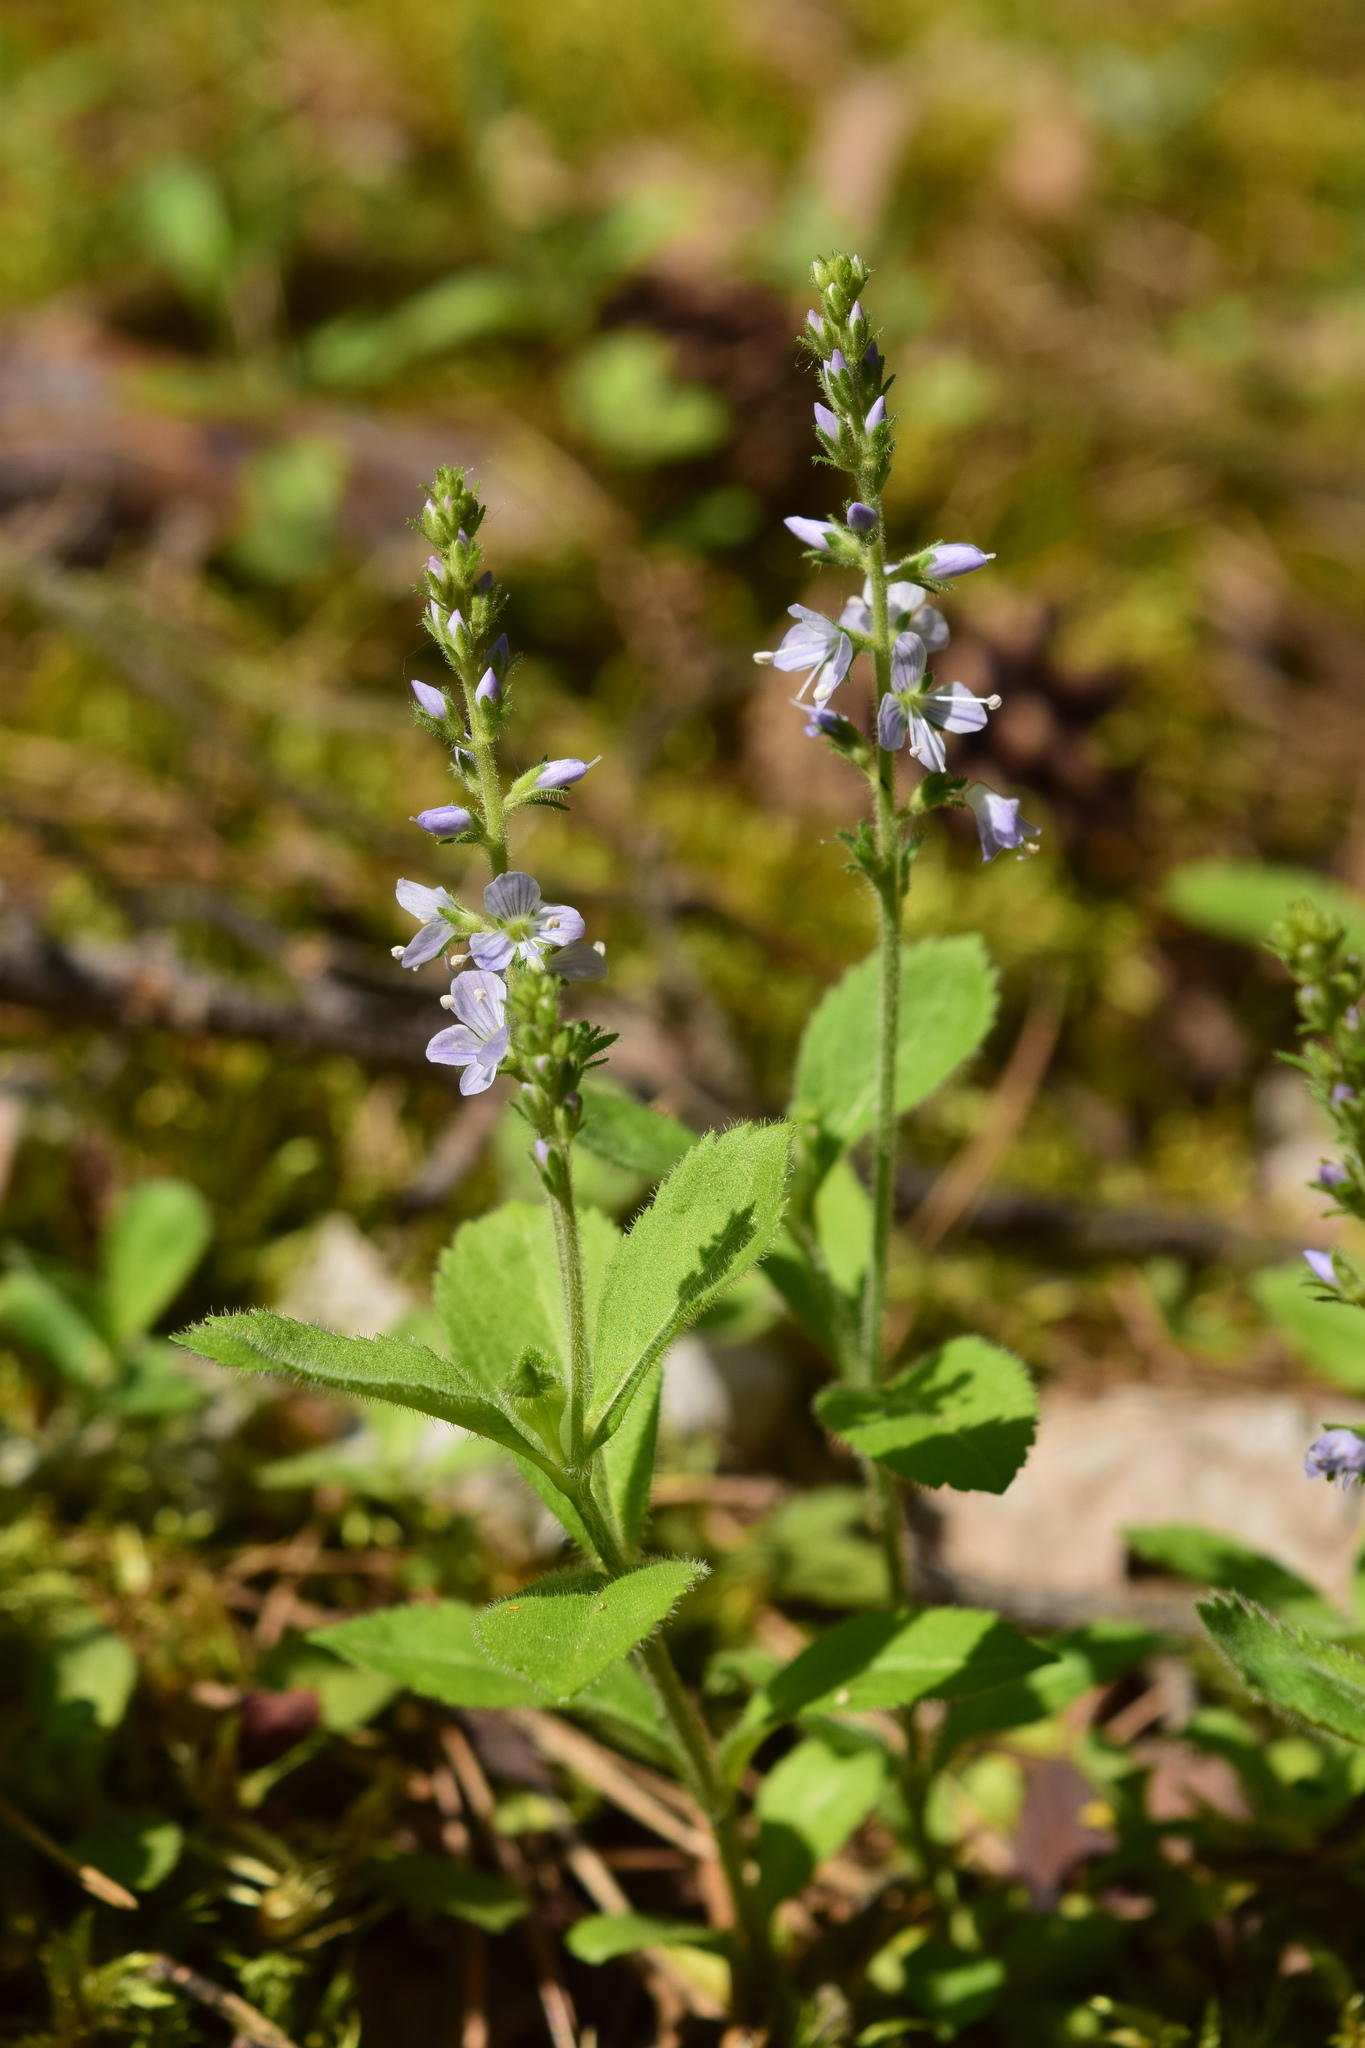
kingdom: Plantae
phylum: Tracheophyta
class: Magnoliopsida
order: Lamiales
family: Plantaginaceae
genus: Veronica
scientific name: Veronica officinalis
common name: Common speedwell
